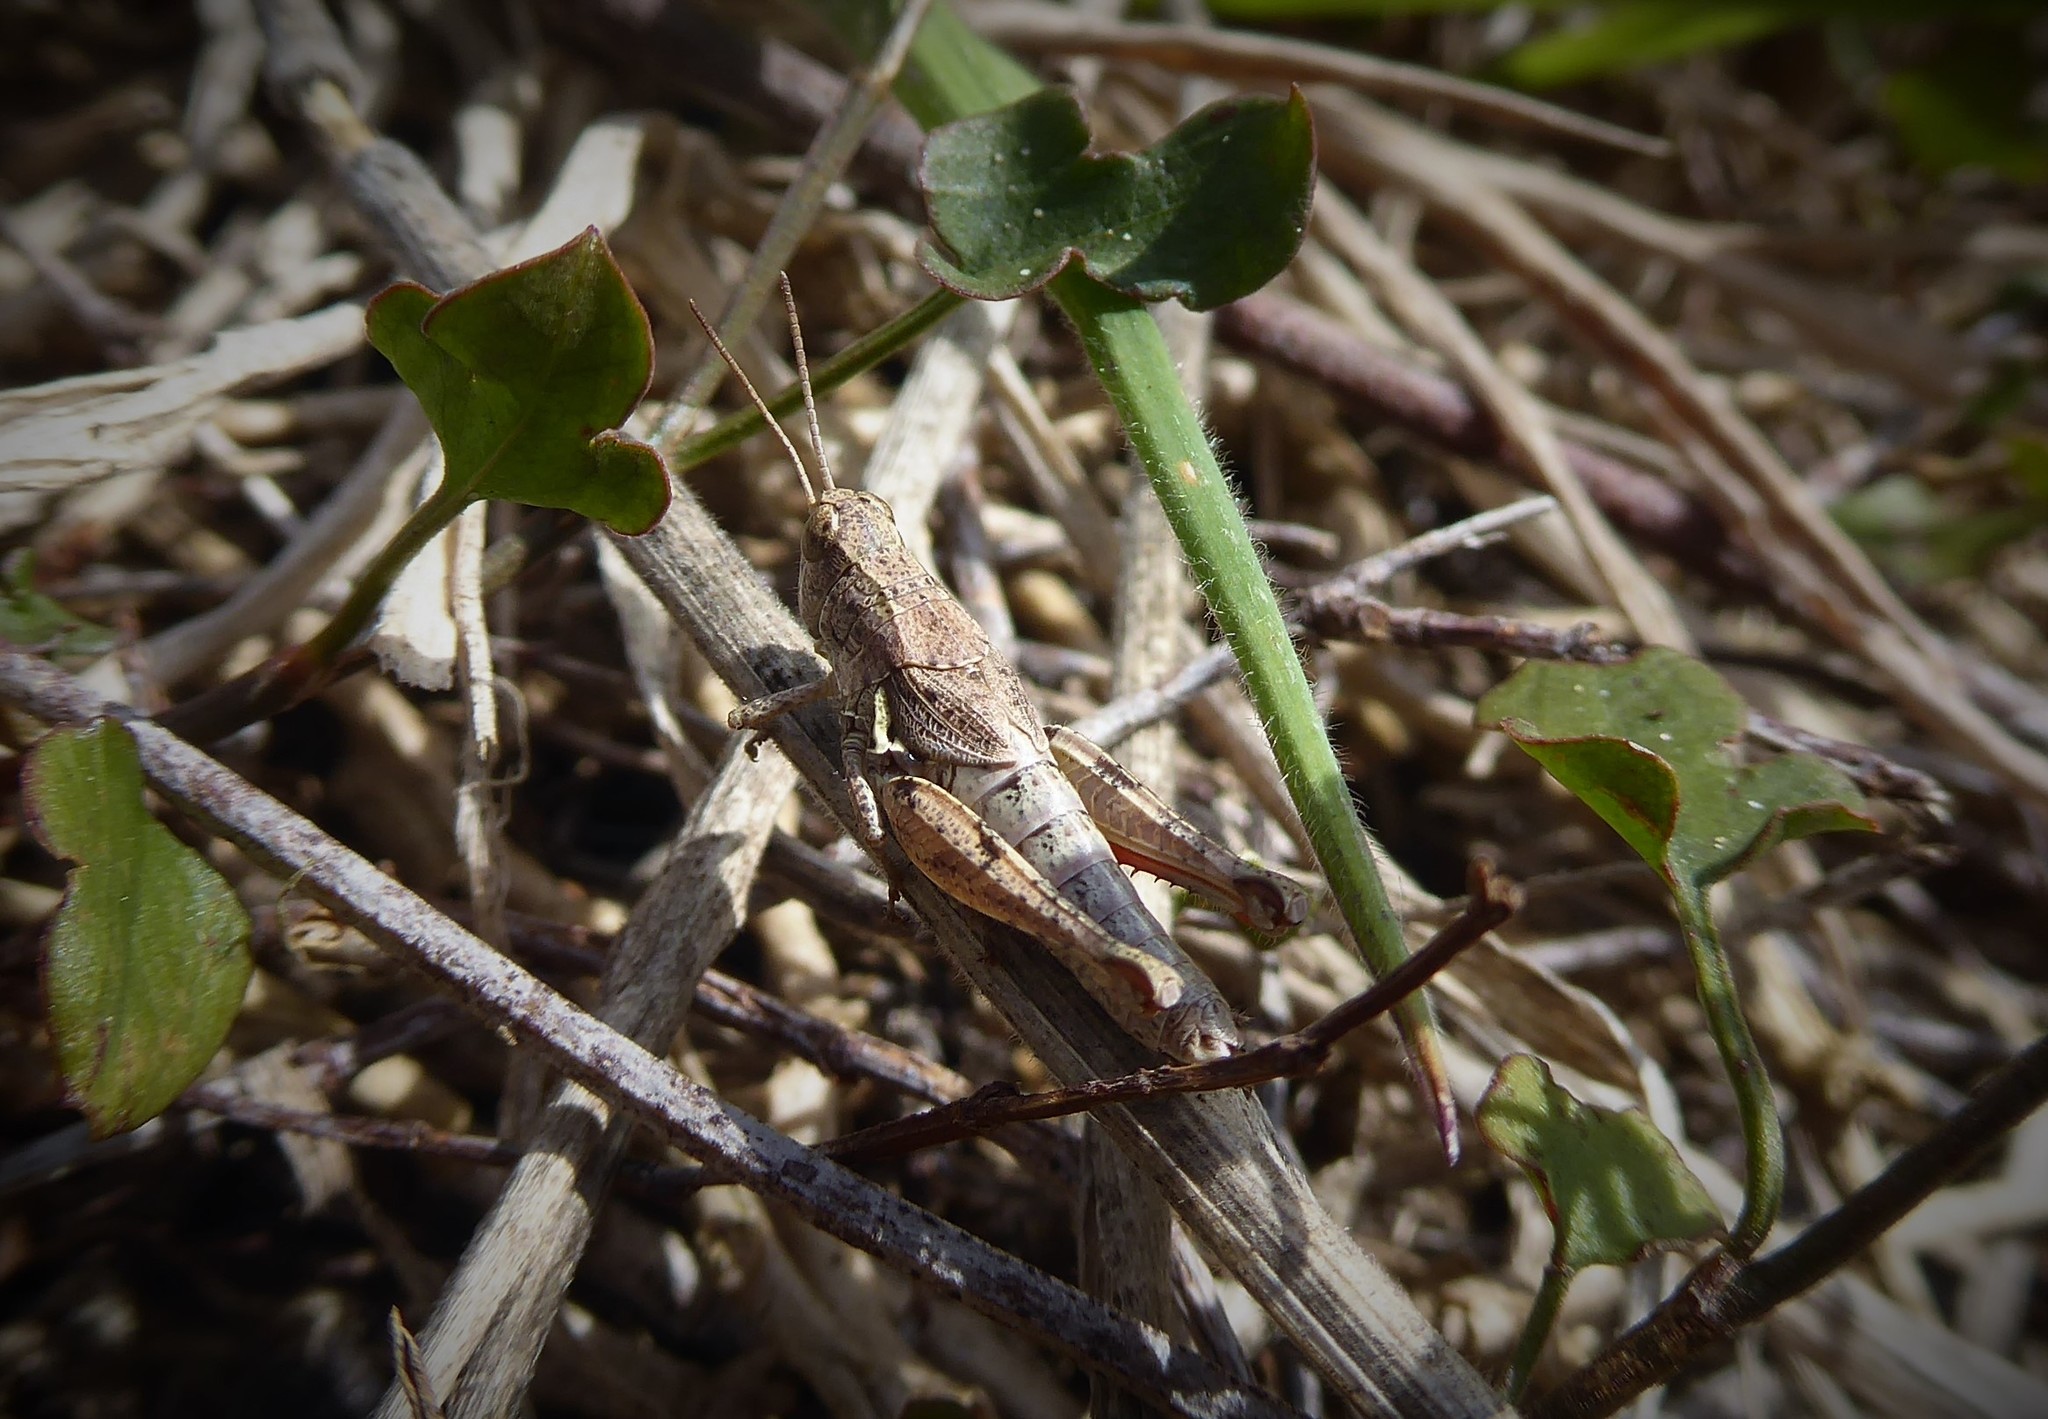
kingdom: Animalia
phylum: Arthropoda
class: Insecta
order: Orthoptera
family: Acrididae
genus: Phaulacridium
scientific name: Phaulacridium marginale
